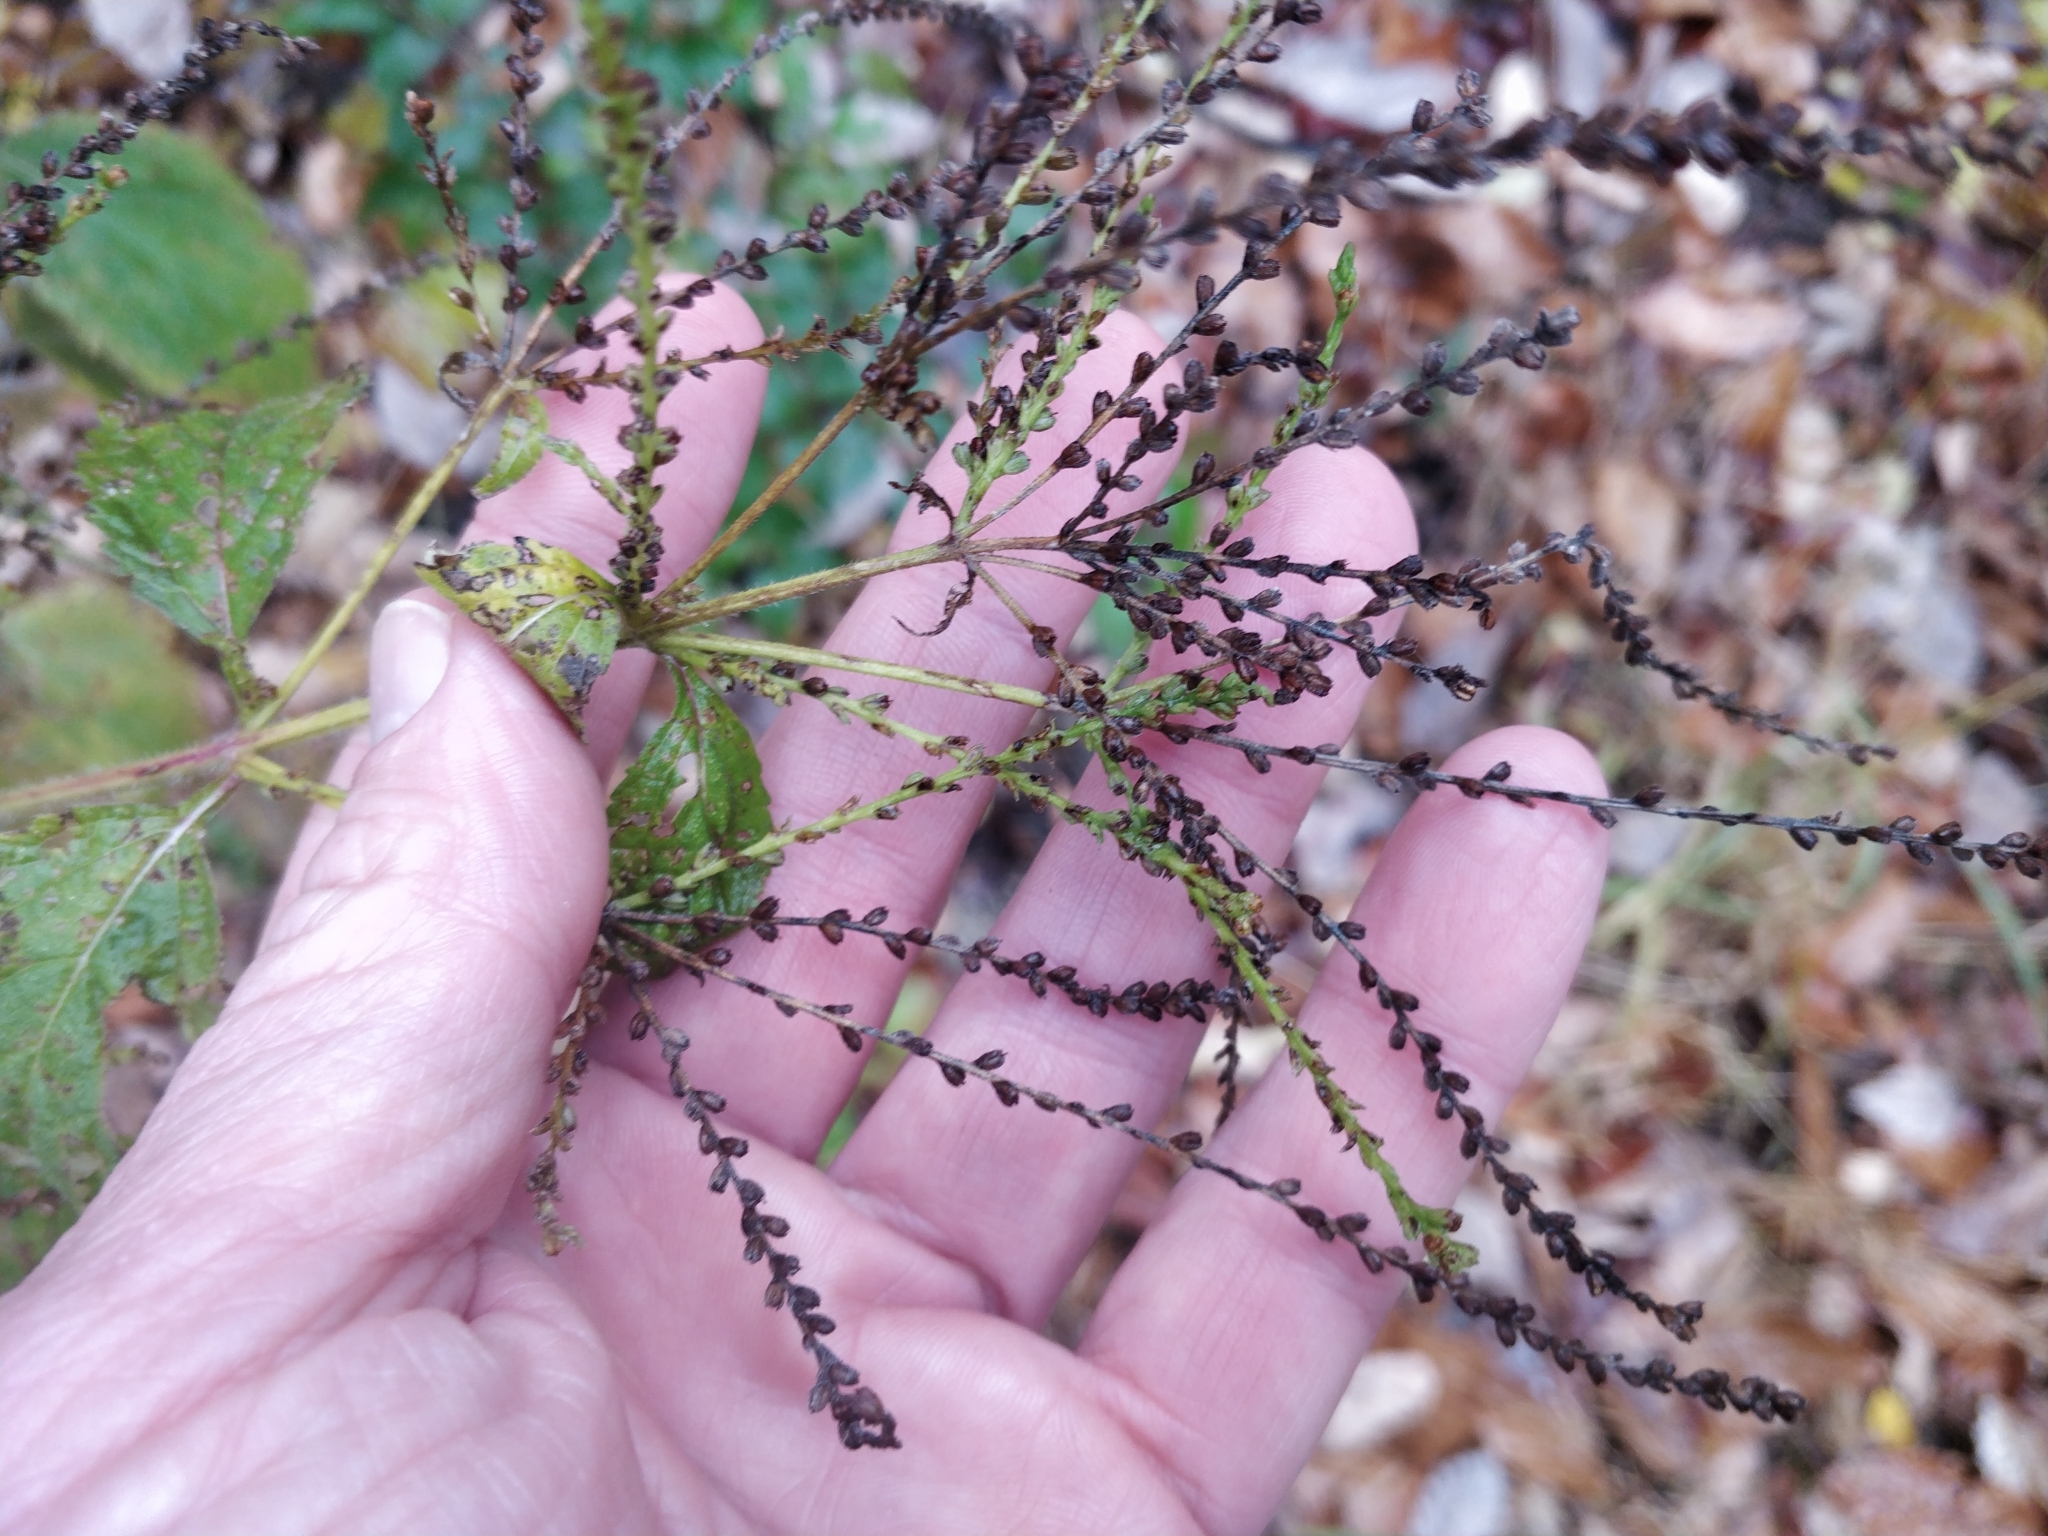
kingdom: Plantae
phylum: Tracheophyta
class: Magnoliopsida
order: Lamiales
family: Verbenaceae
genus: Verbena
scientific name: Verbena urticifolia
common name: Nettle-leaved vervain
